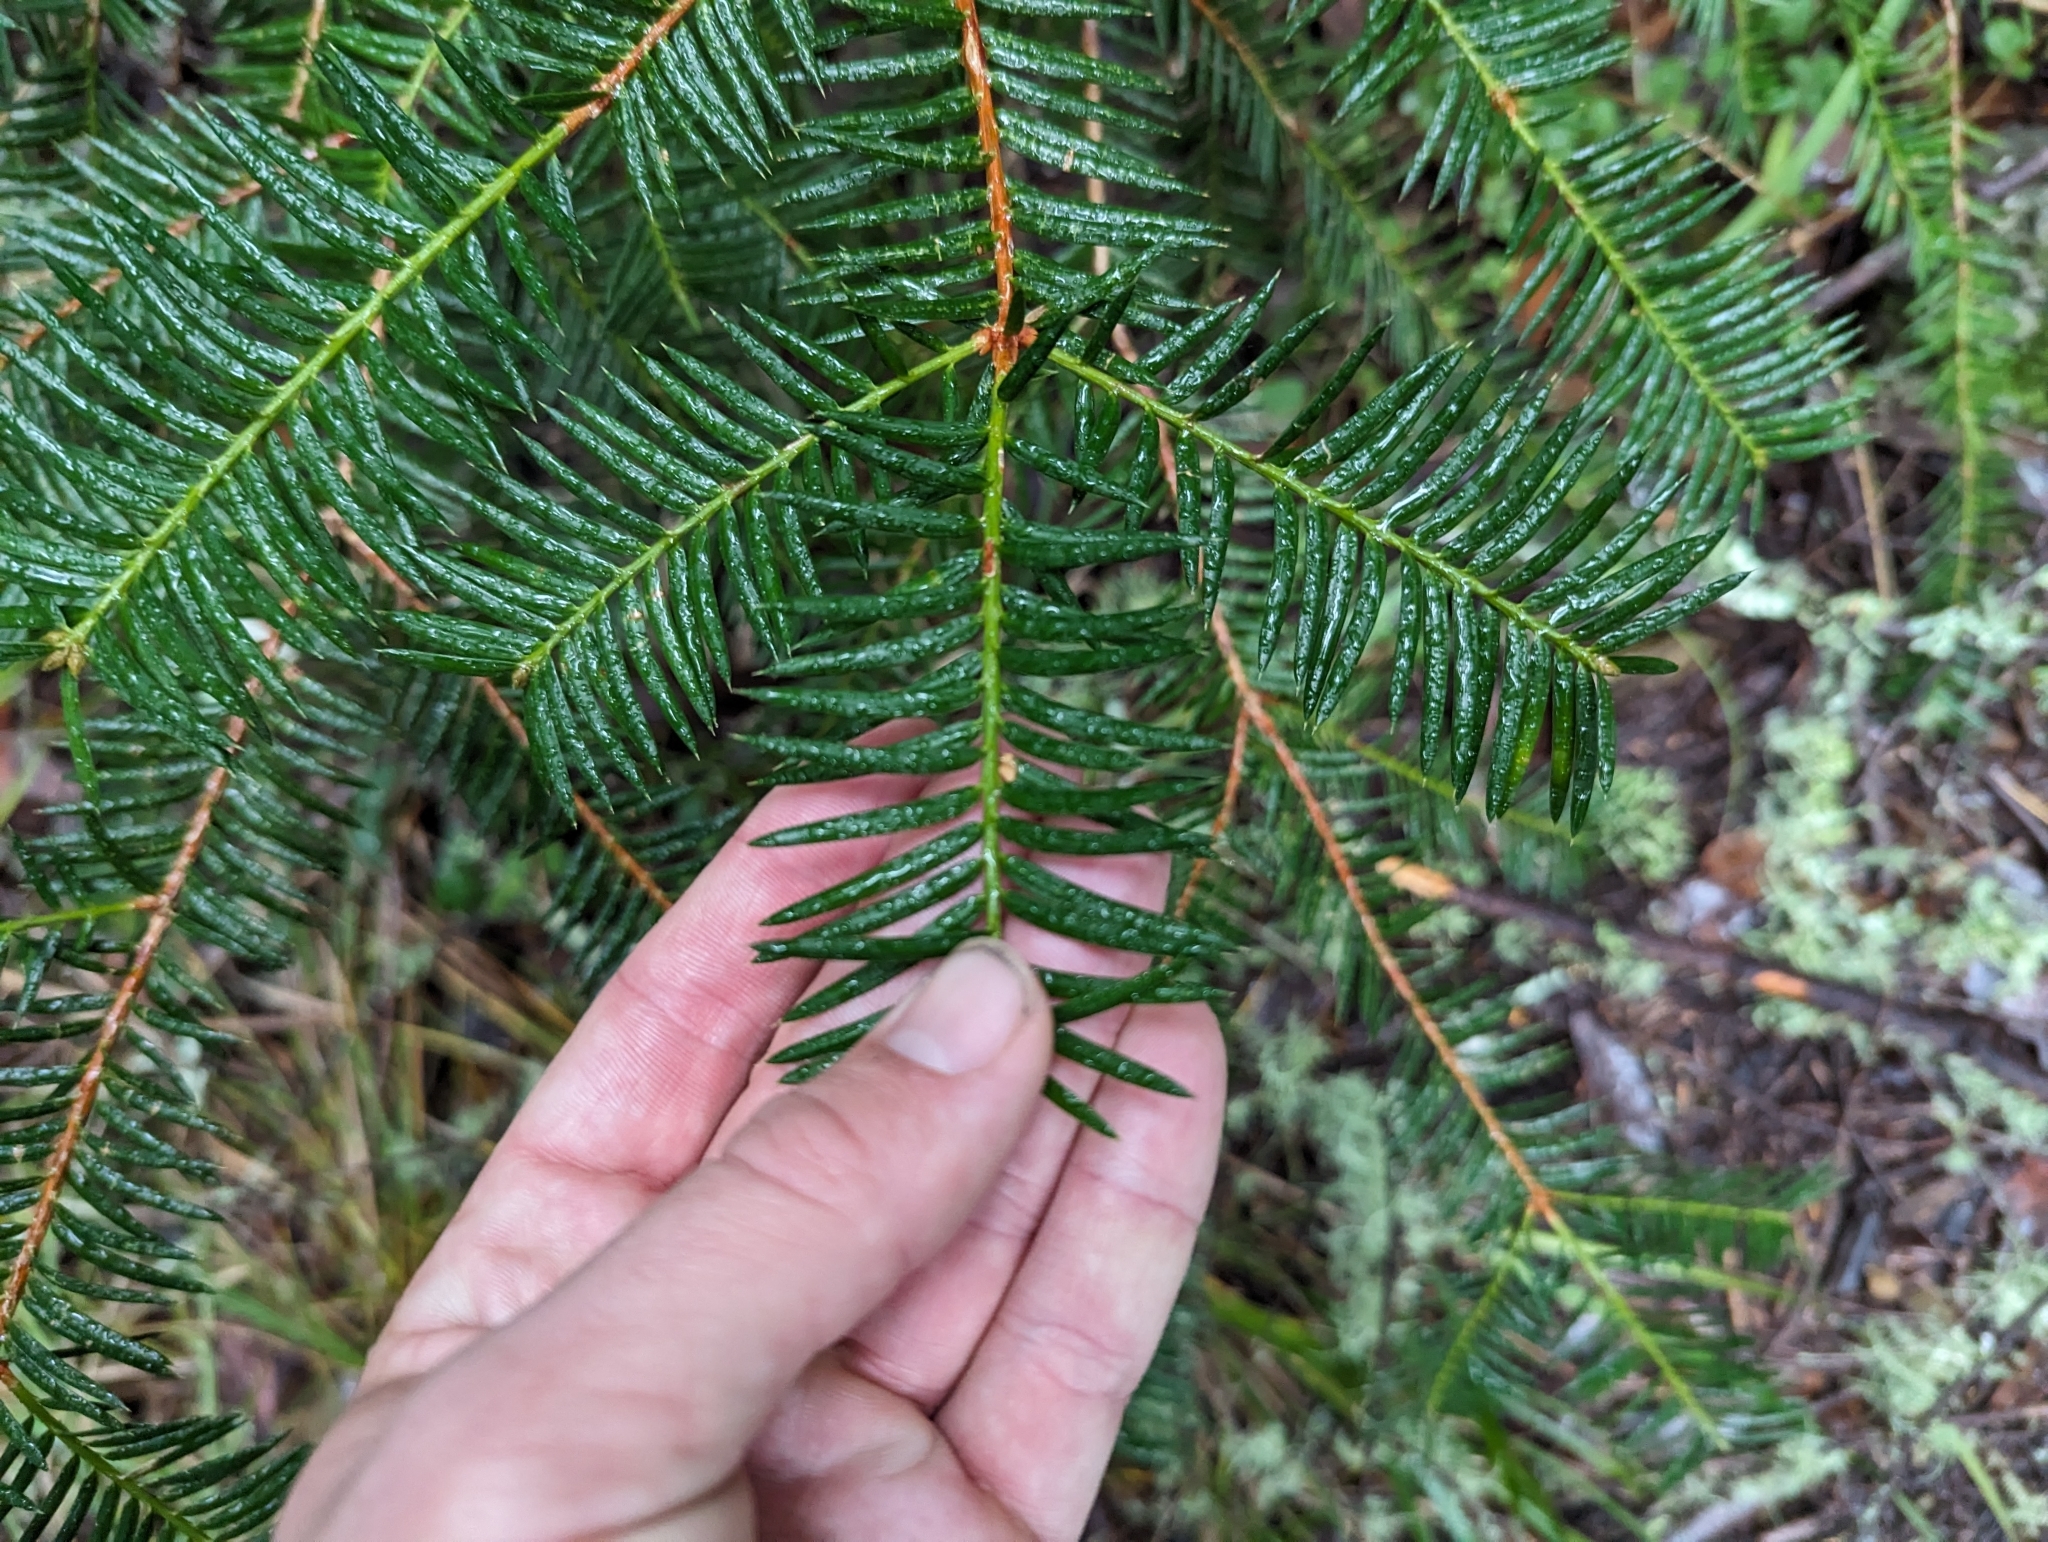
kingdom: Plantae
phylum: Tracheophyta
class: Pinopsida
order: Pinales
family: Taxaceae
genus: Torreya
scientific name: Torreya californica
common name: California torreya
